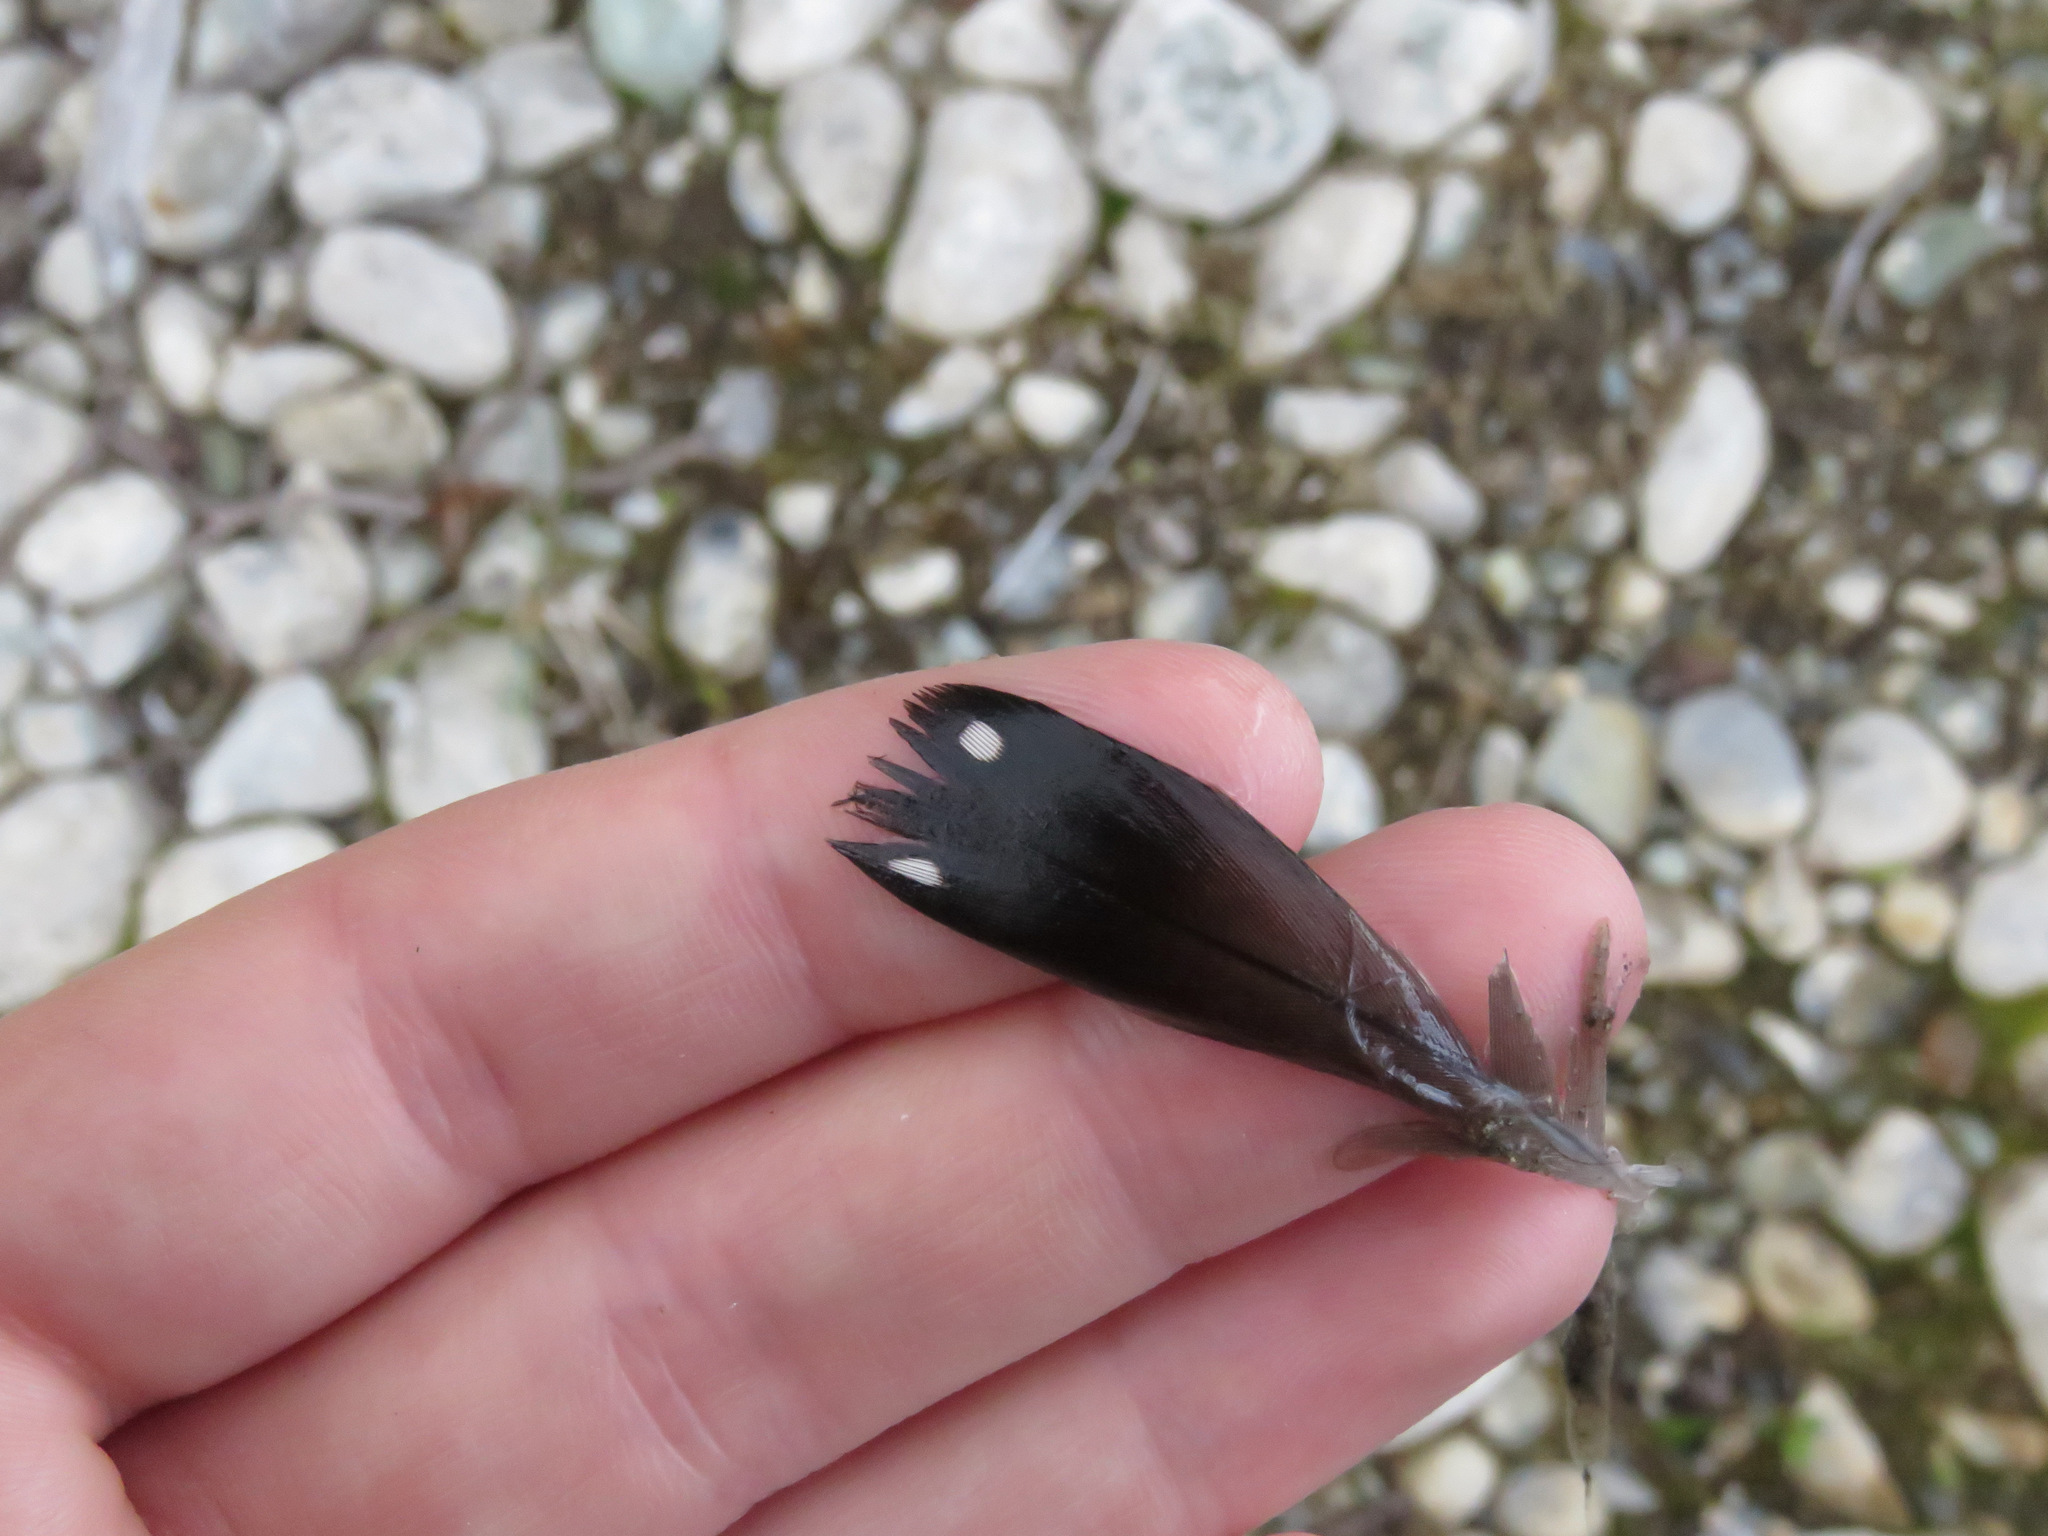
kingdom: Animalia
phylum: Chordata
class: Aves
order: Gaviiformes
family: Gaviidae
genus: Gavia
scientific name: Gavia immer
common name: Common loon
